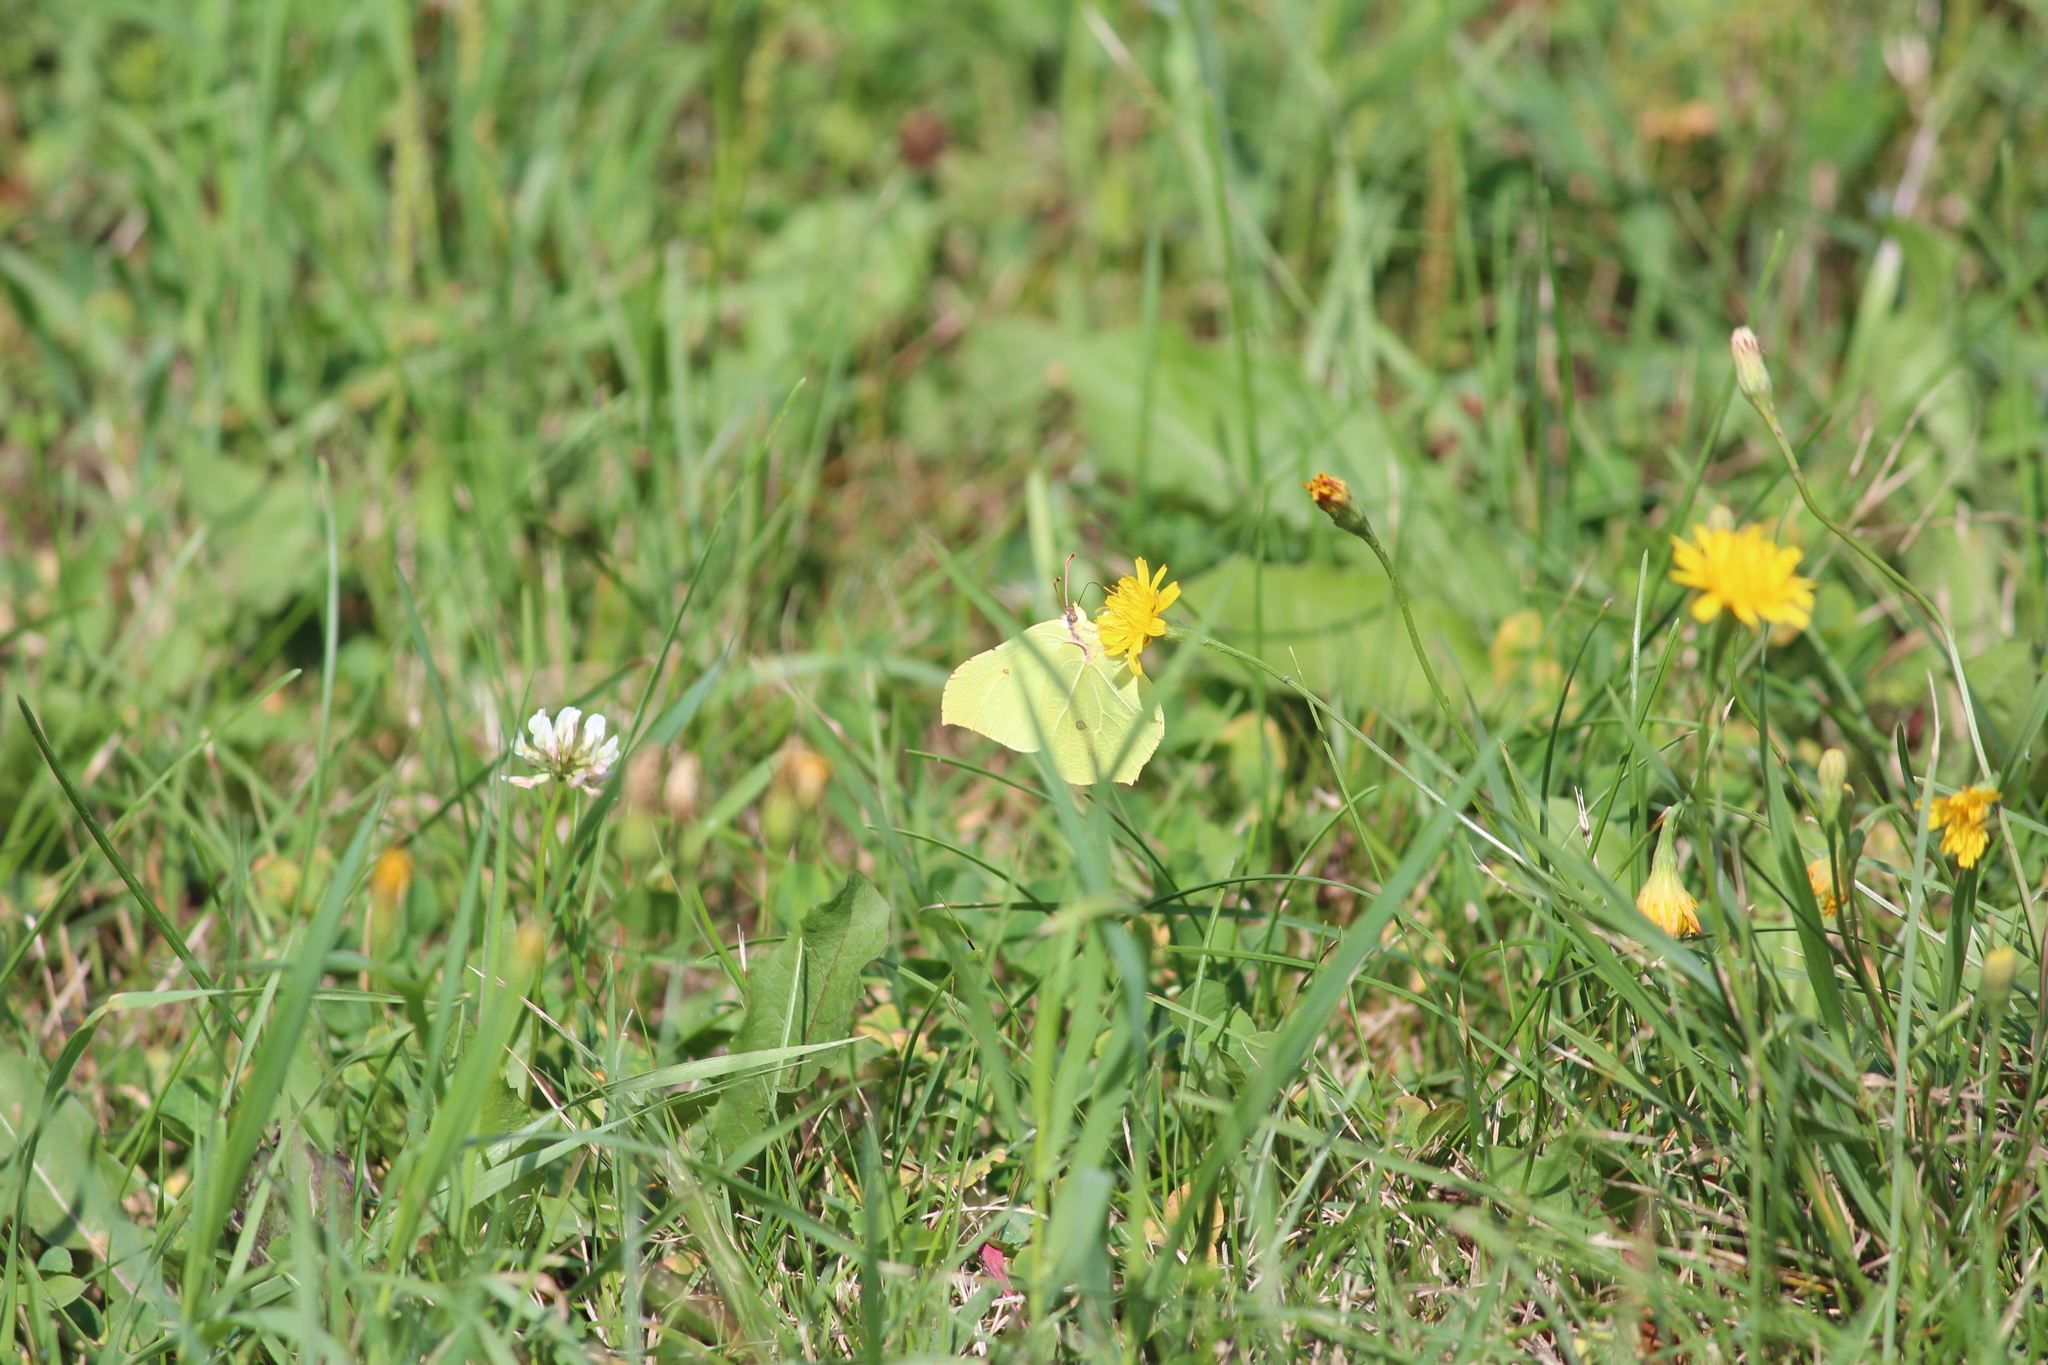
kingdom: Animalia
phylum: Arthropoda
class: Insecta
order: Lepidoptera
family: Pieridae
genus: Gonepteryx
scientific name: Gonepteryx rhamni
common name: Brimstone
